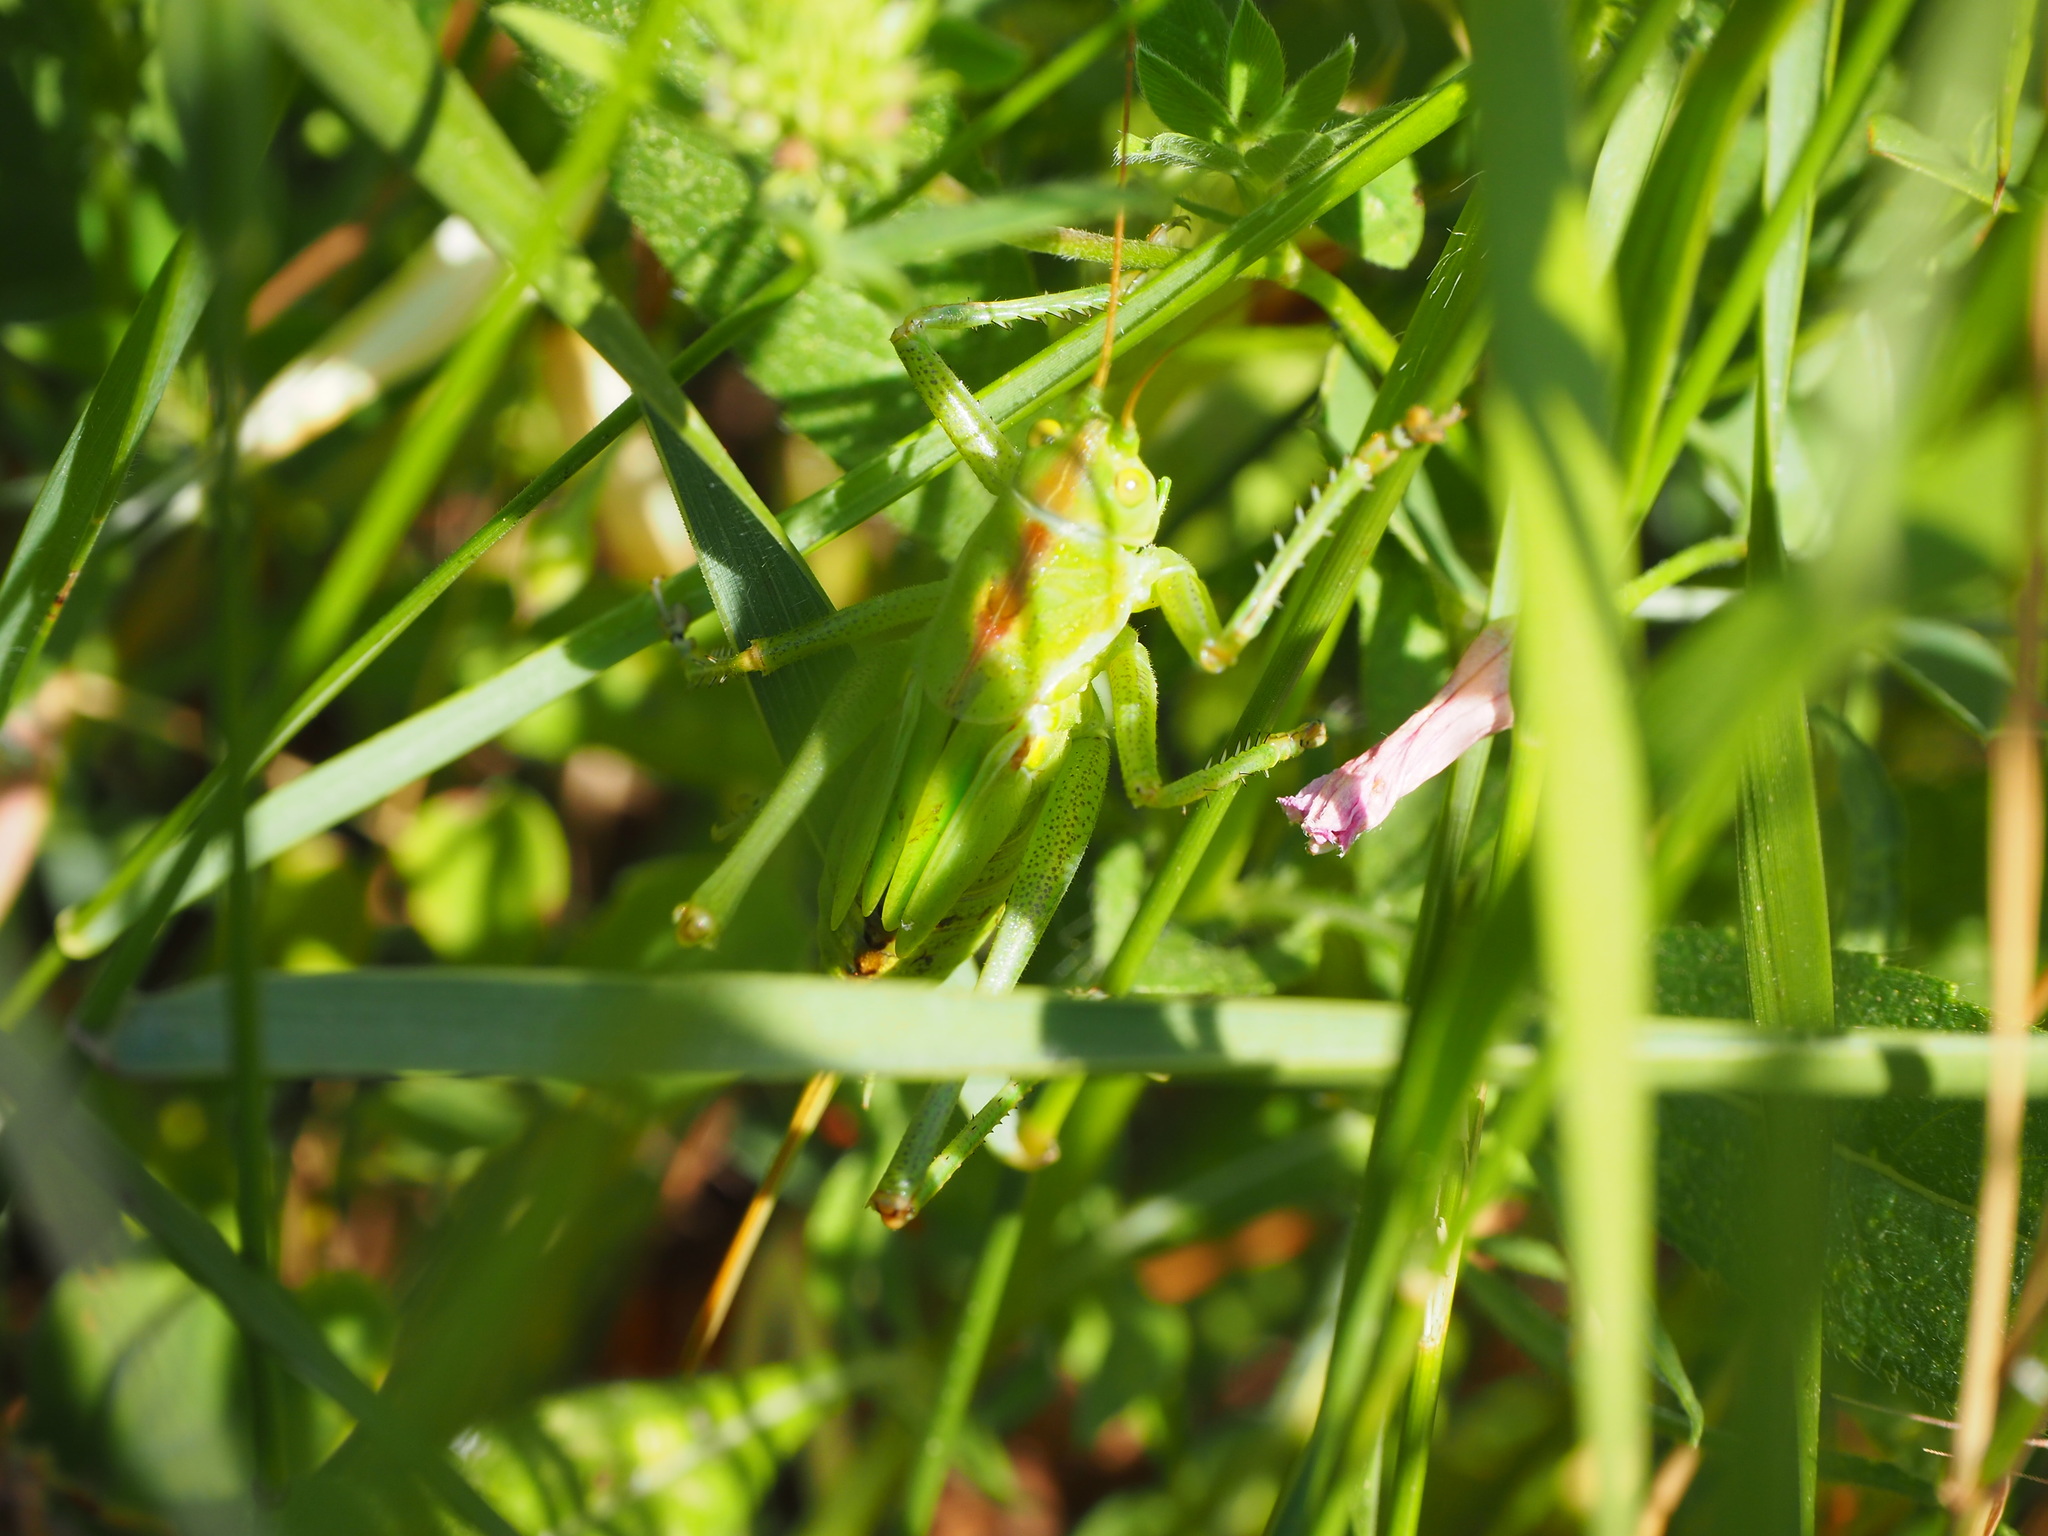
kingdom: Animalia
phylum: Arthropoda
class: Insecta
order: Orthoptera
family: Tettigoniidae
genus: Tettigonia
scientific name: Tettigonia viridissima
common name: Great green bush-cricket
